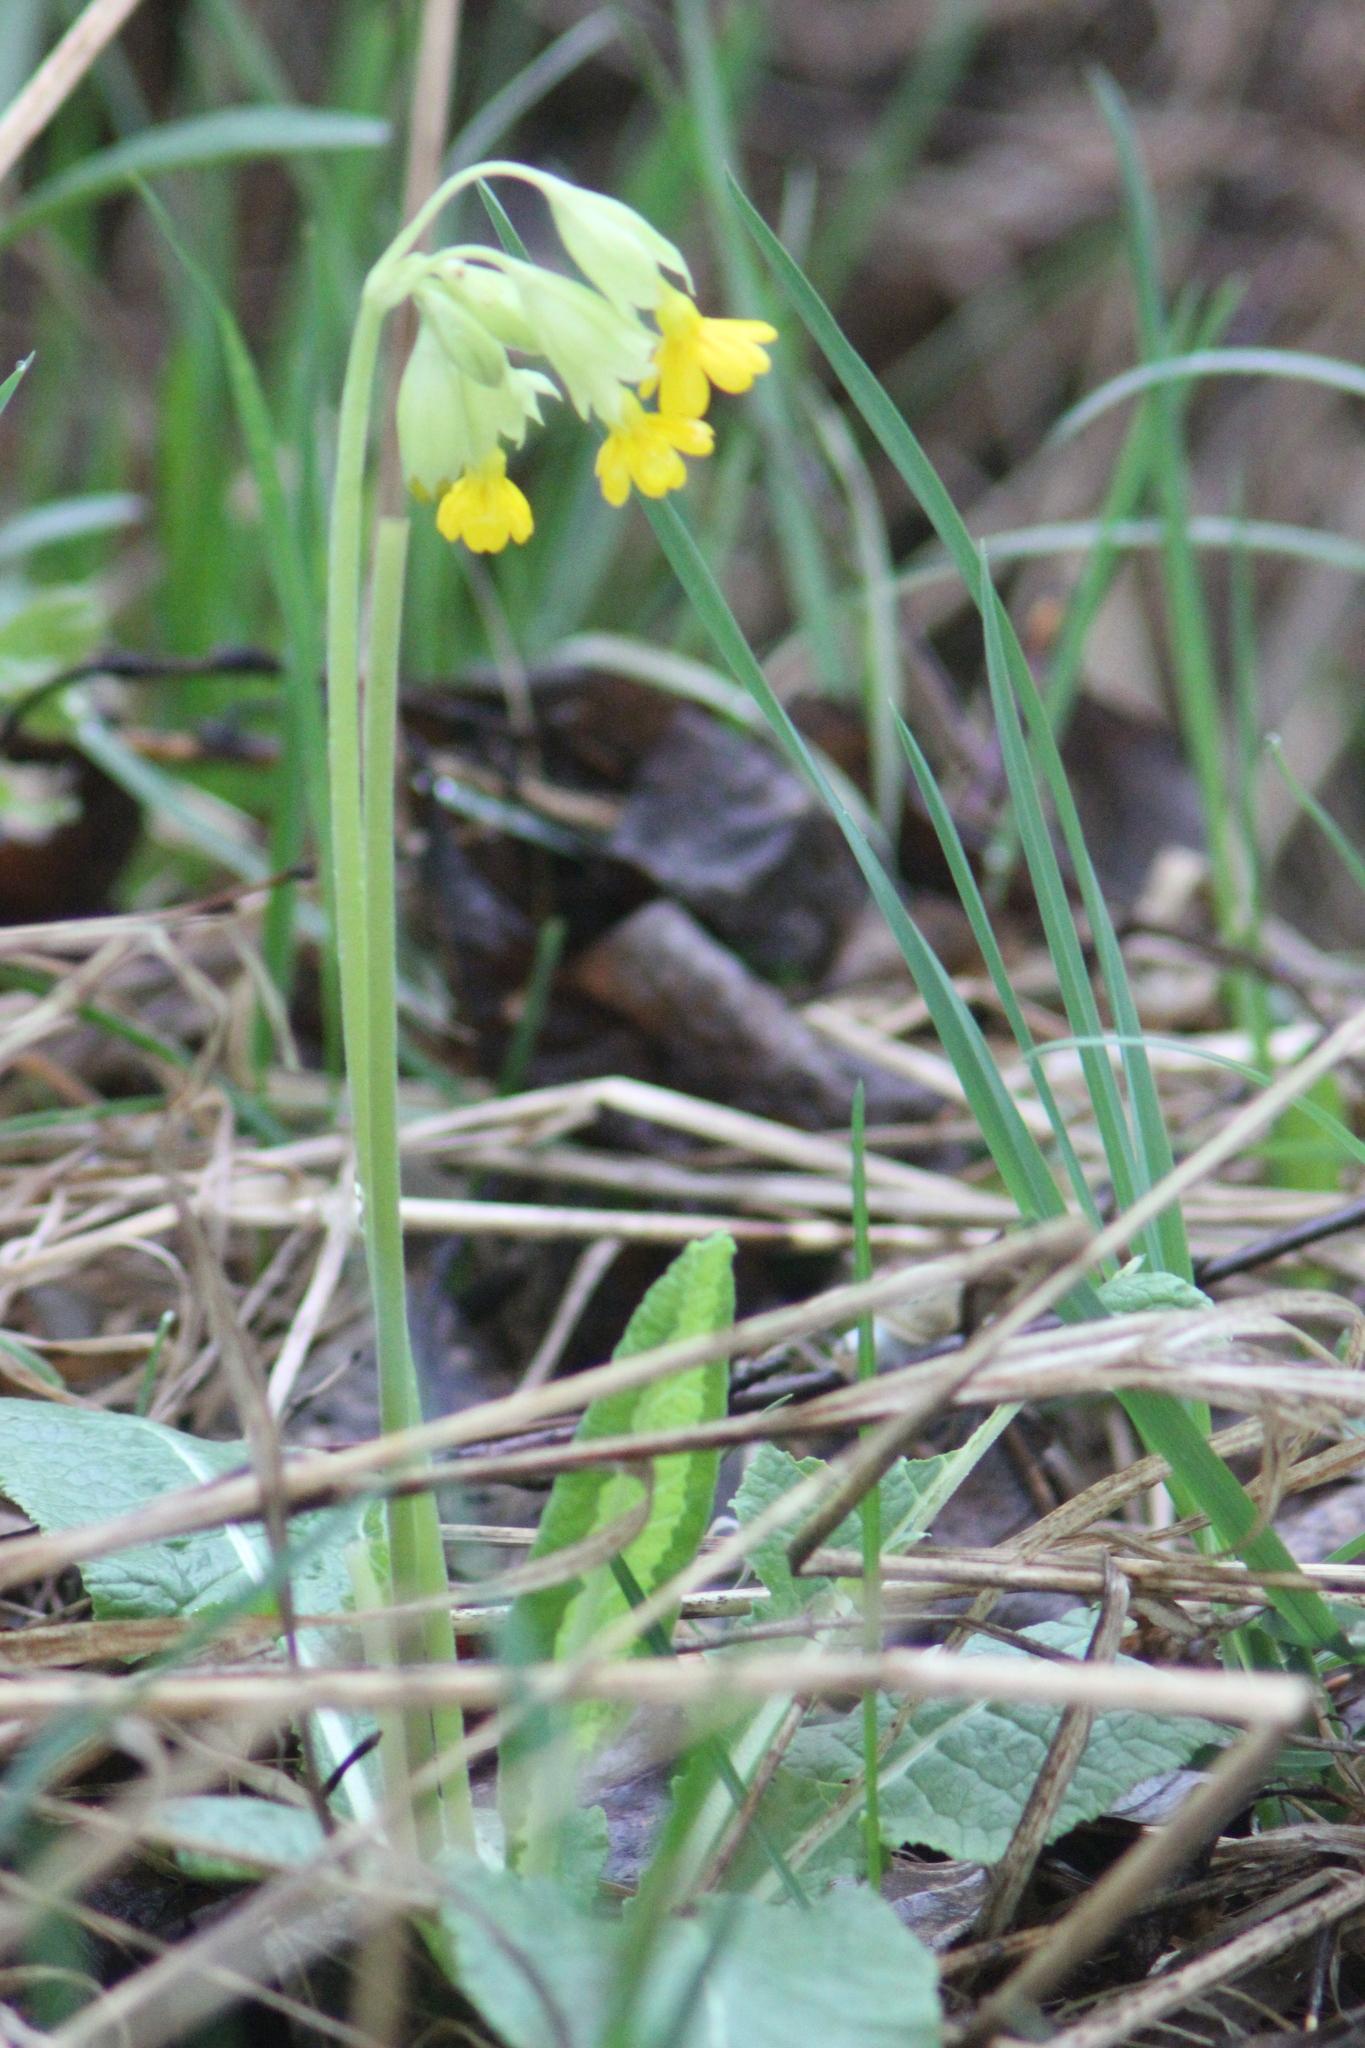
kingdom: Plantae
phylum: Tracheophyta
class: Magnoliopsida
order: Ericales
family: Primulaceae
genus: Primula
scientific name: Primula veris
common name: Cowslip
